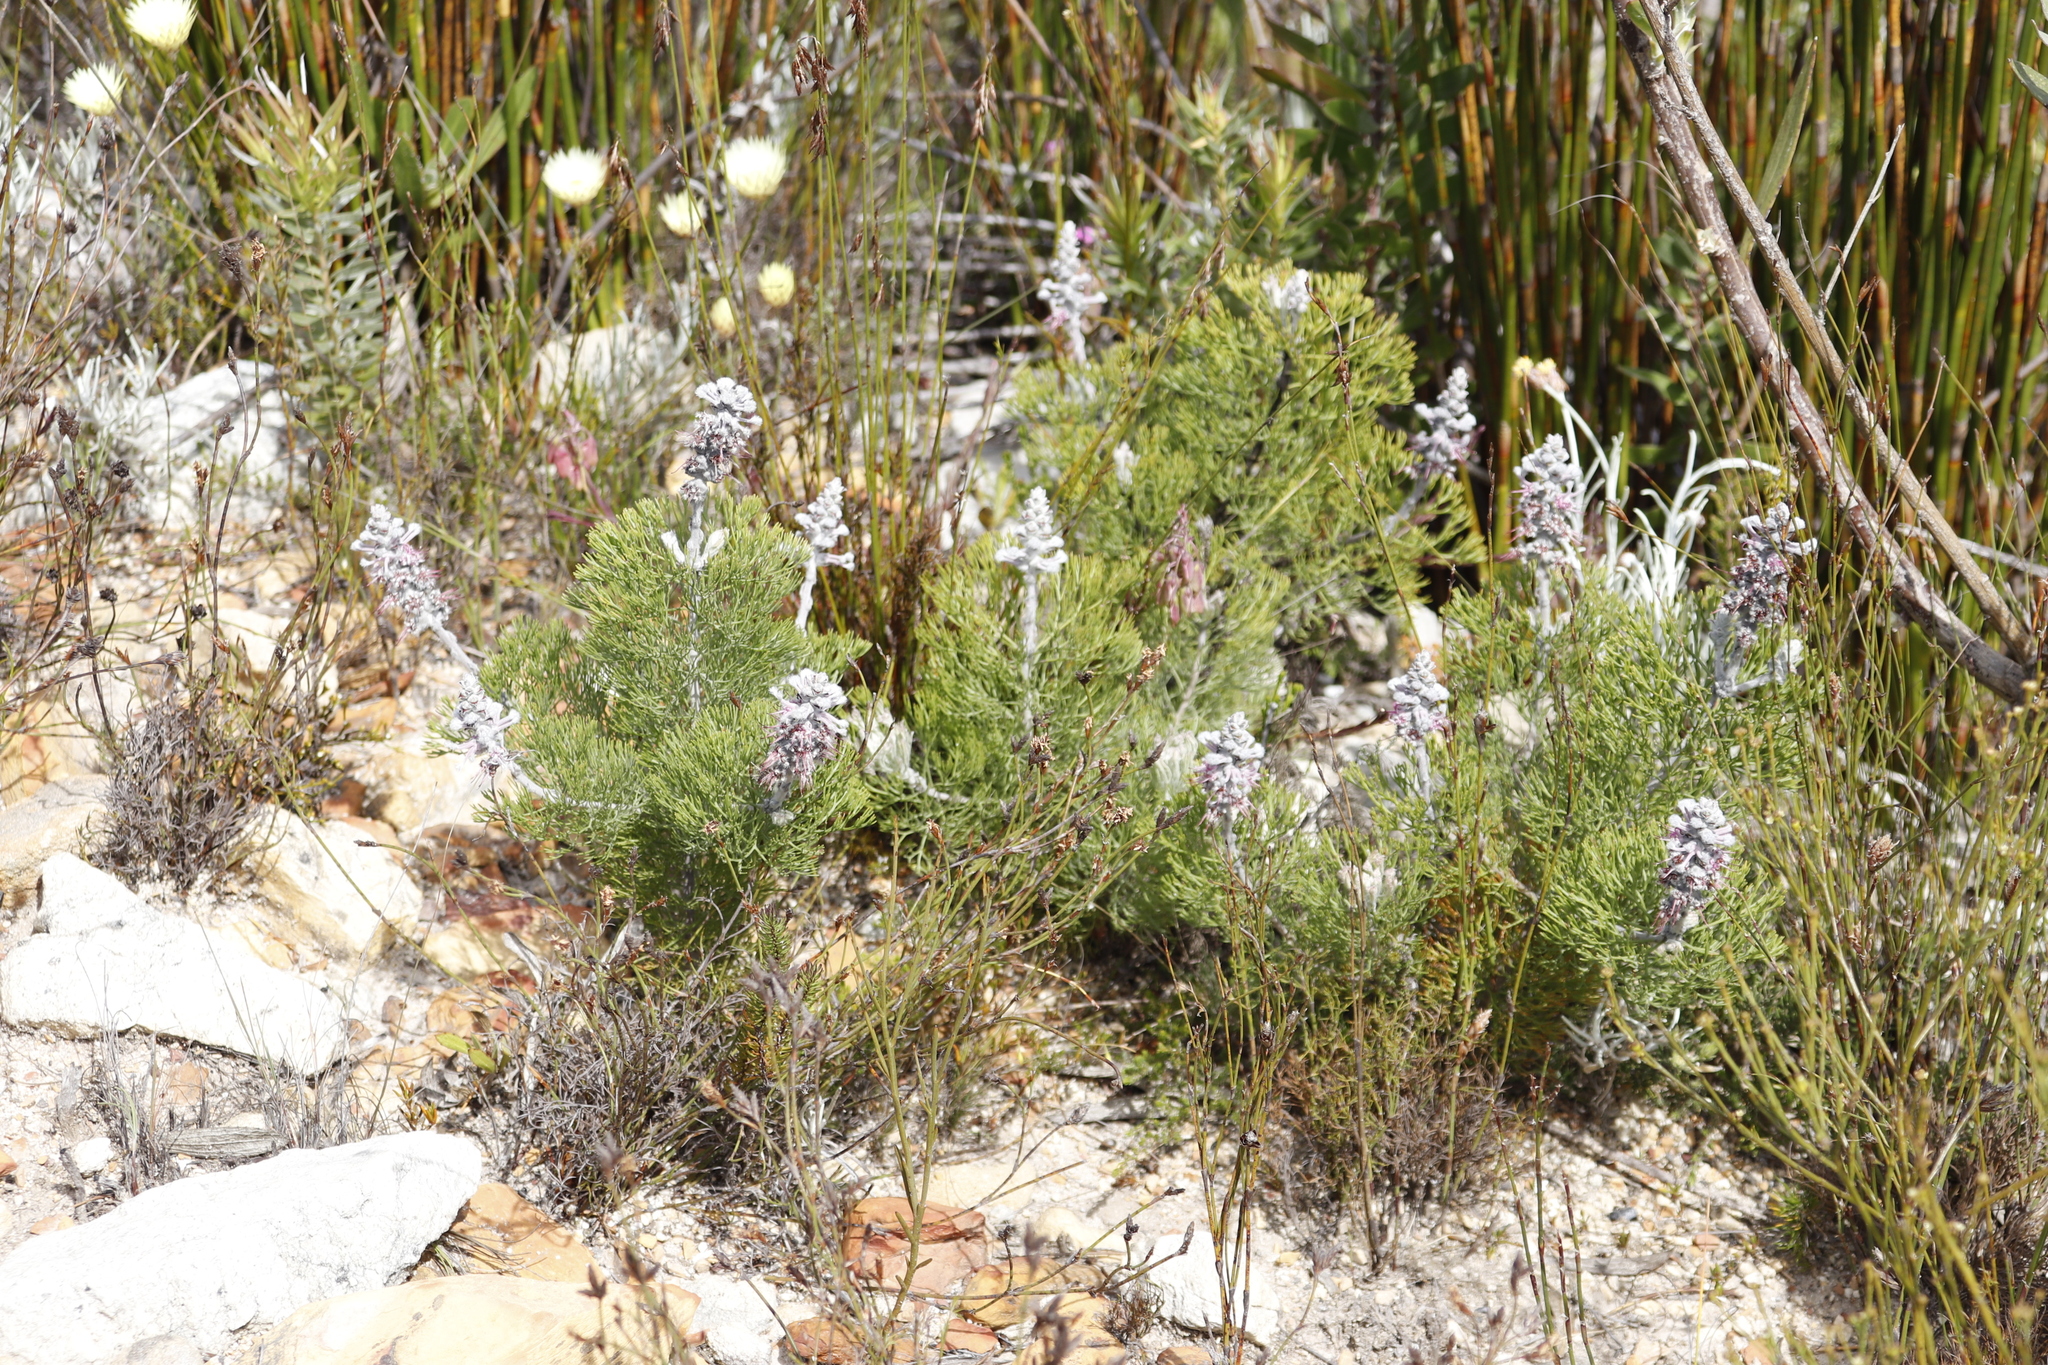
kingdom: Plantae
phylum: Tracheophyta
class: Magnoliopsida
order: Proteales
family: Proteaceae
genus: Paranomus
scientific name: Paranomus bolusii
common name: Overberg sceptre
